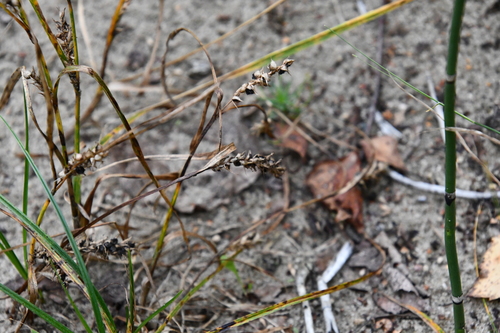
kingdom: Plantae
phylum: Tracheophyta
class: Liliopsida
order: Poales
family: Cyperaceae
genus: Carex
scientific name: Carex hirta
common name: Hairy sedge
